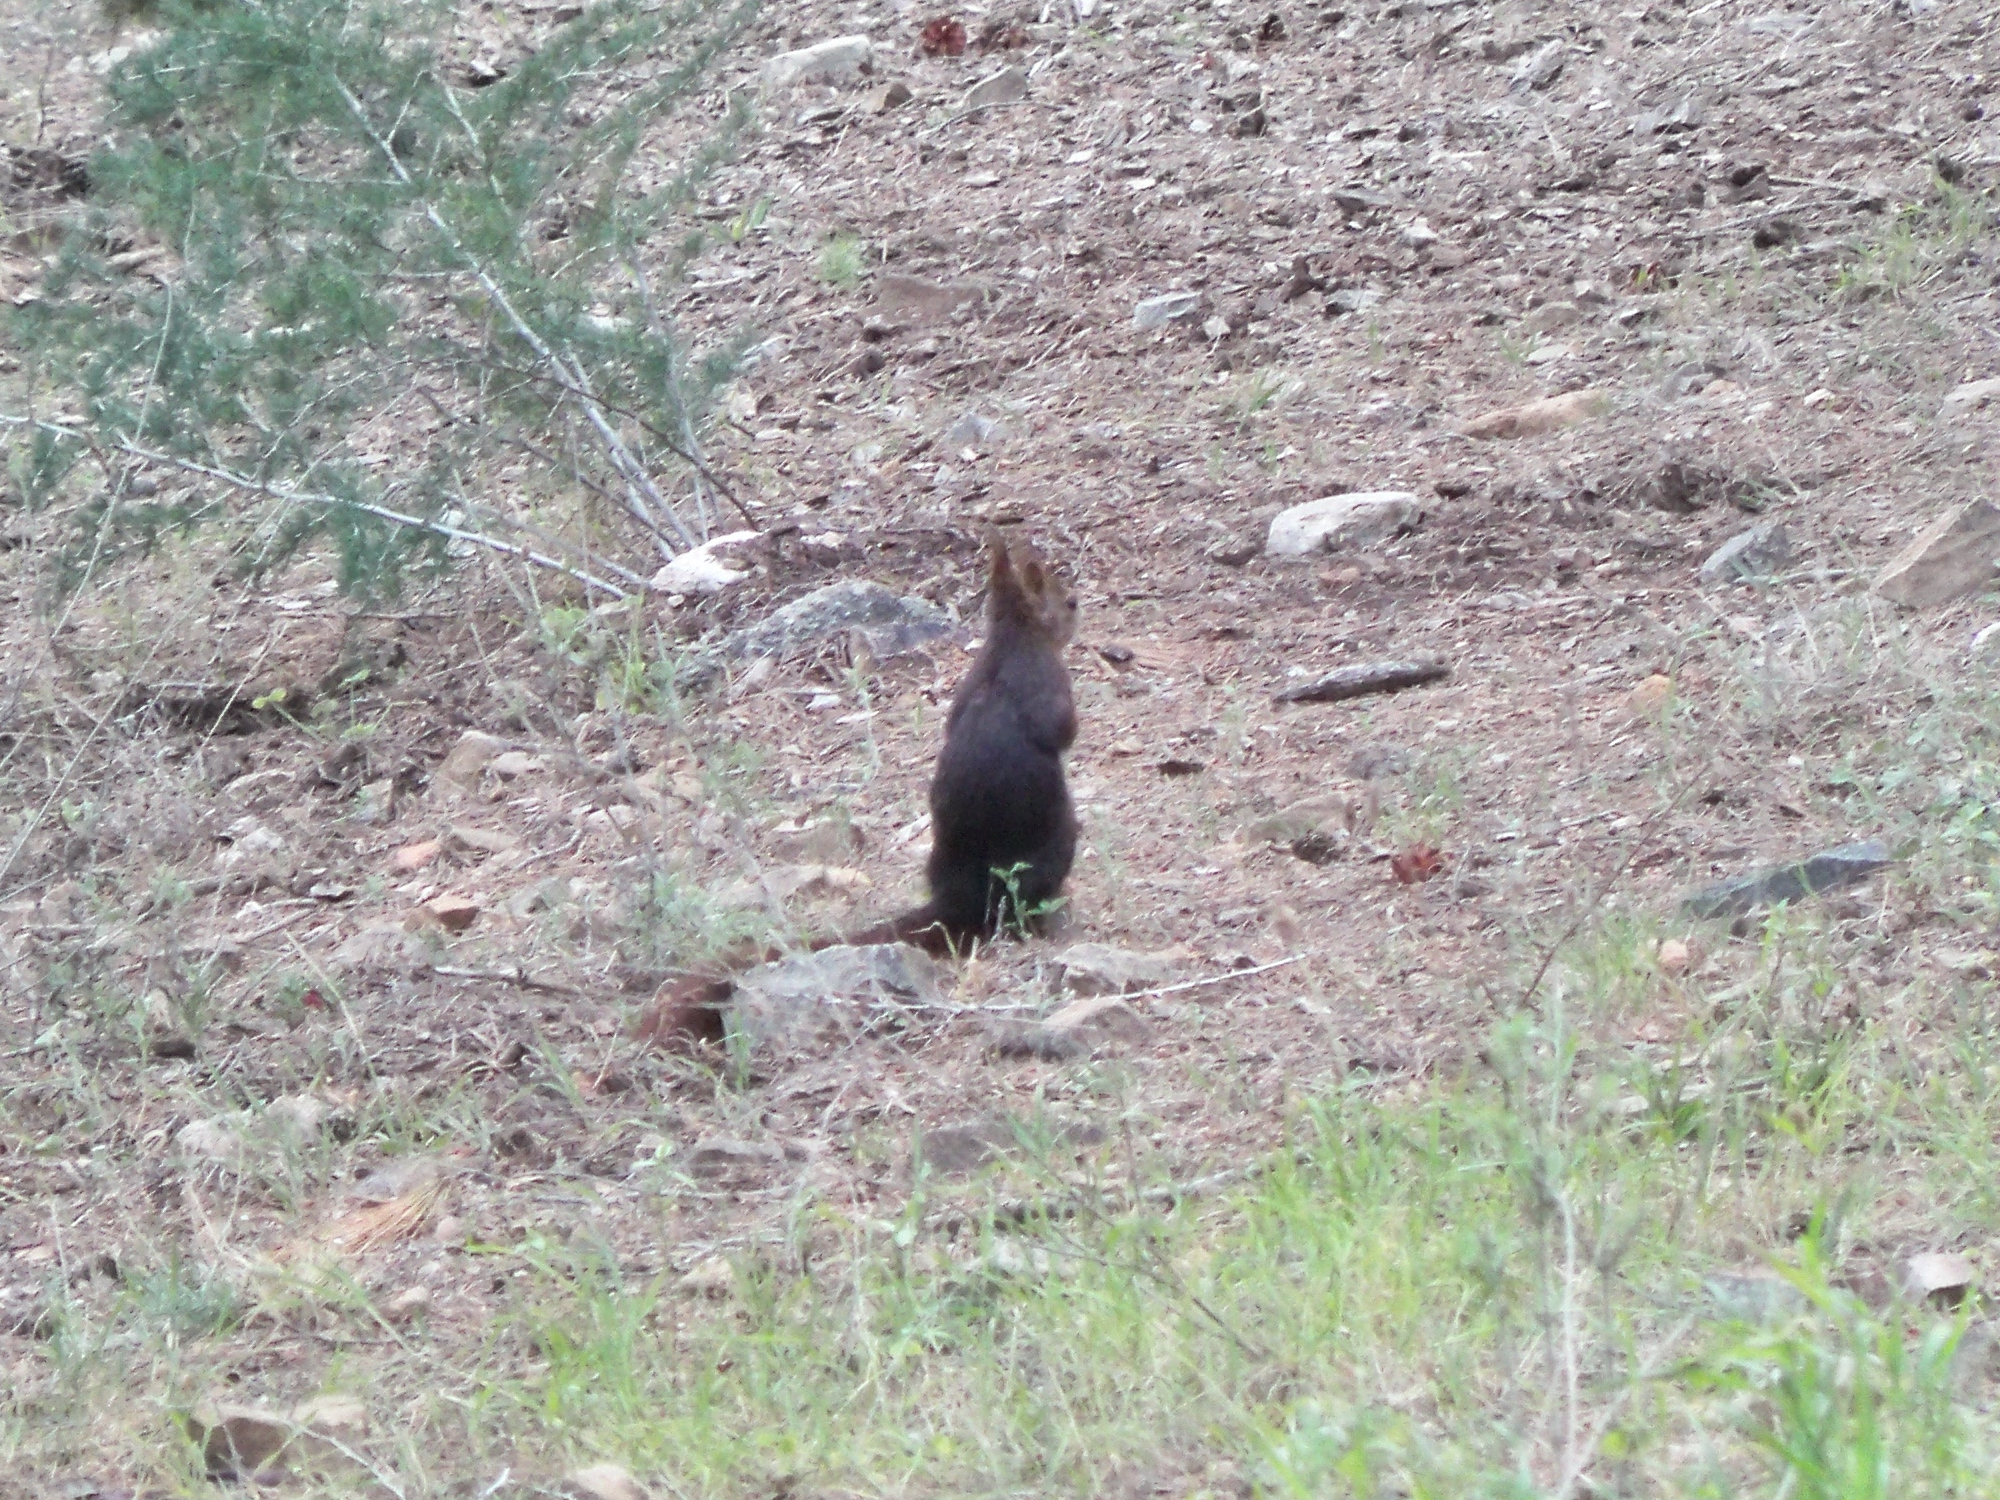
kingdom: Animalia
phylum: Chordata
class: Mammalia
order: Rodentia
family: Sciuridae
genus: Sciurus
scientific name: Sciurus vulgaris
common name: Eurasian red squirrel
